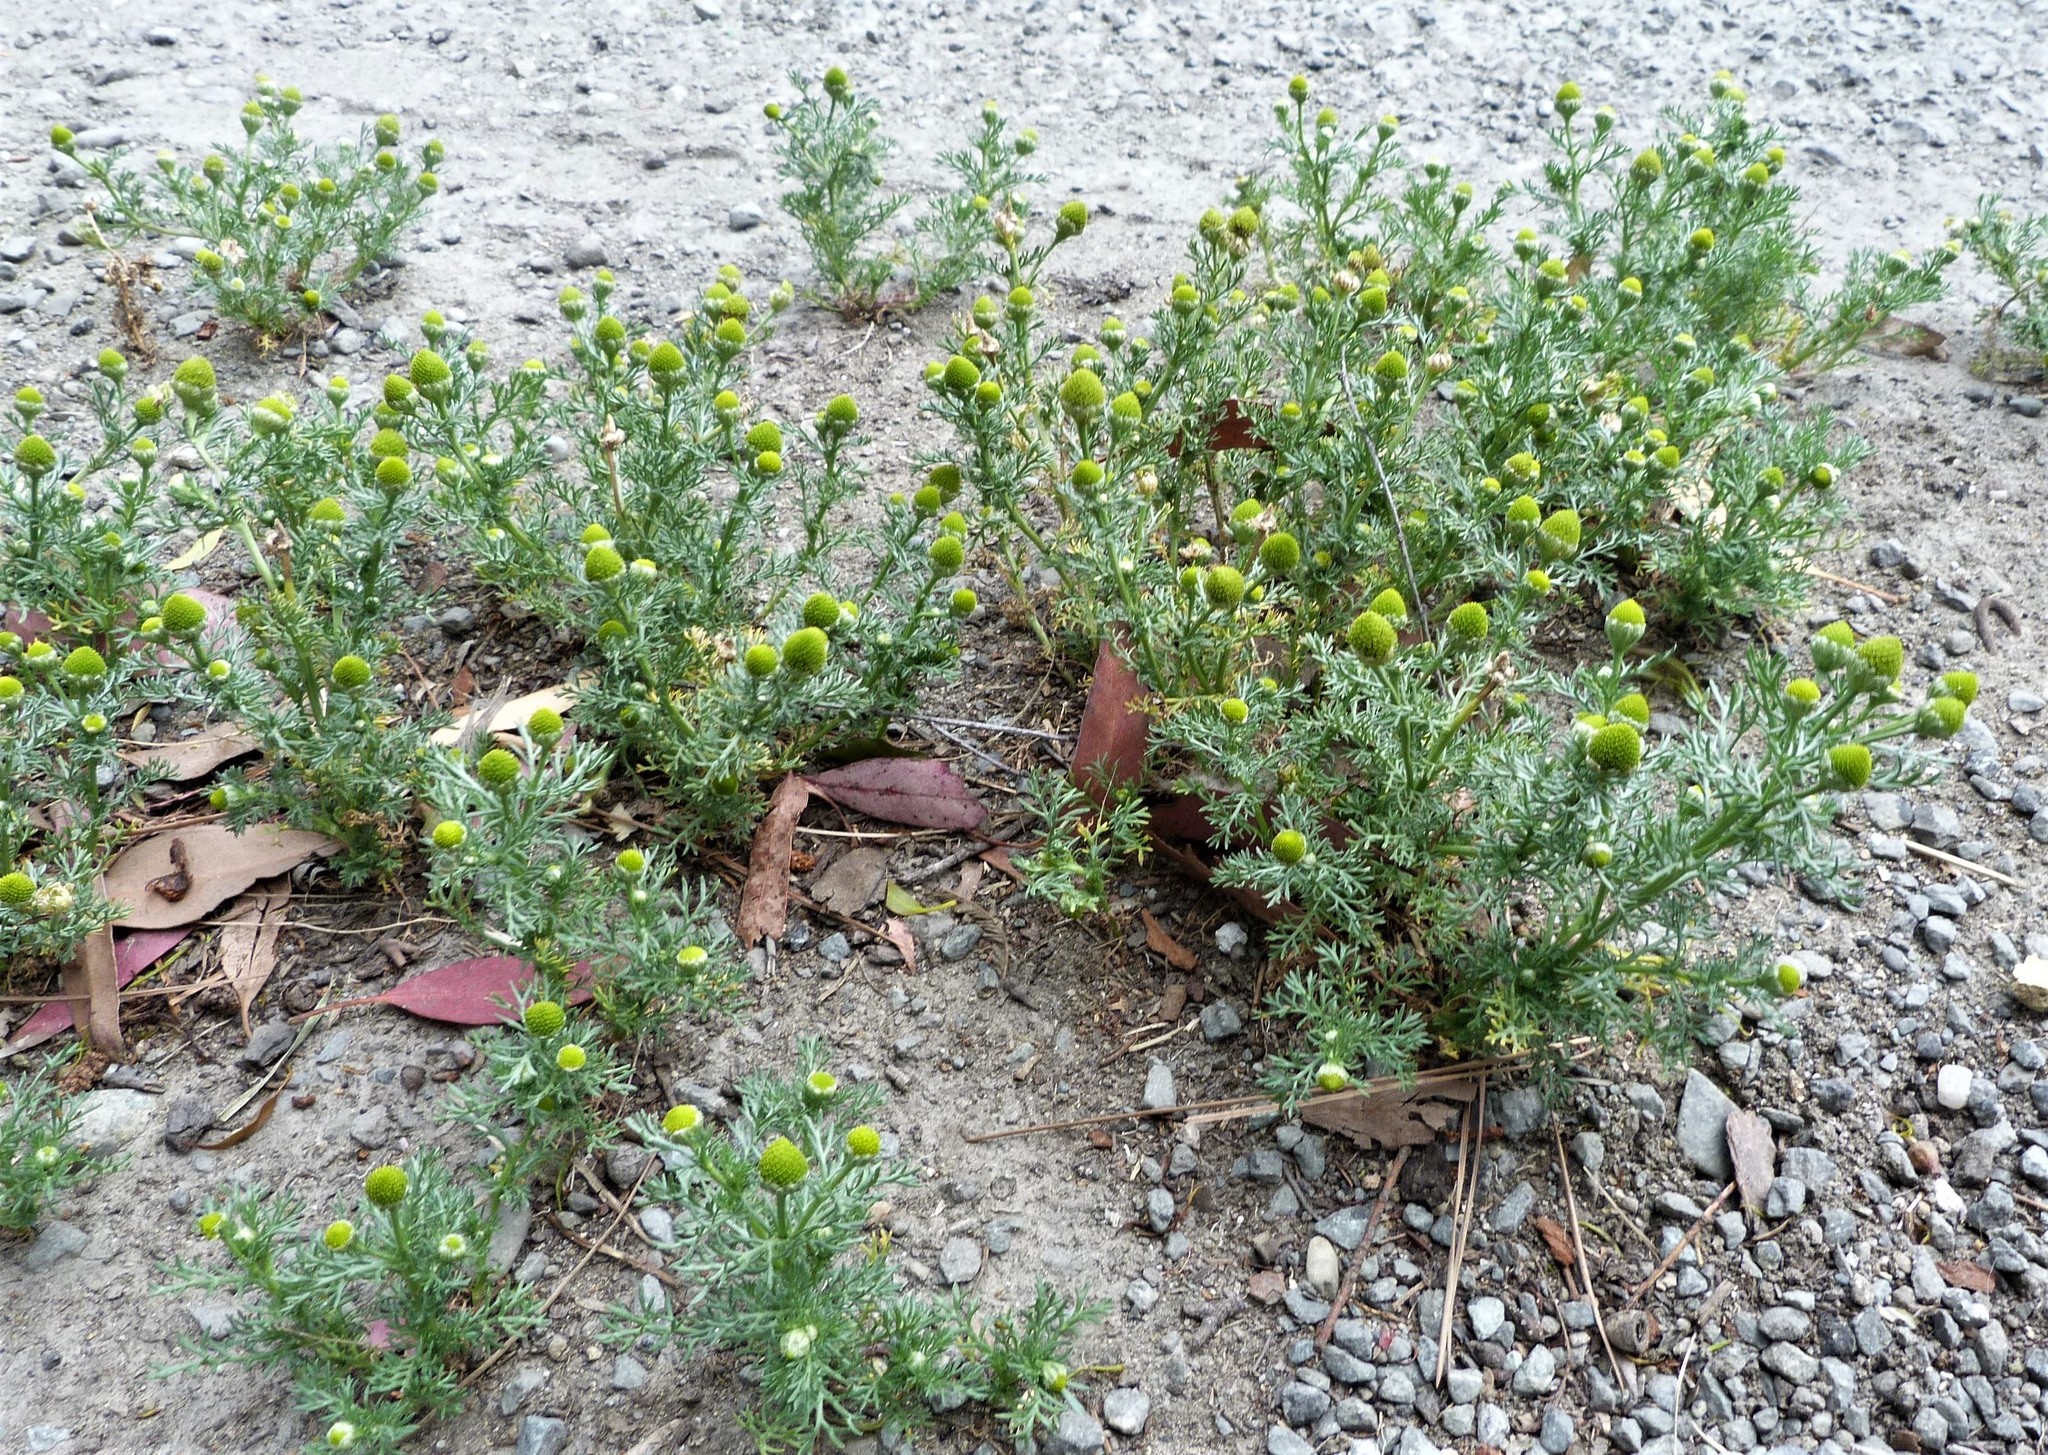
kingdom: Plantae
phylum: Tracheophyta
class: Magnoliopsida
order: Asterales
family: Asteraceae
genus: Matricaria
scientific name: Matricaria discoidea
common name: Disc mayweed
